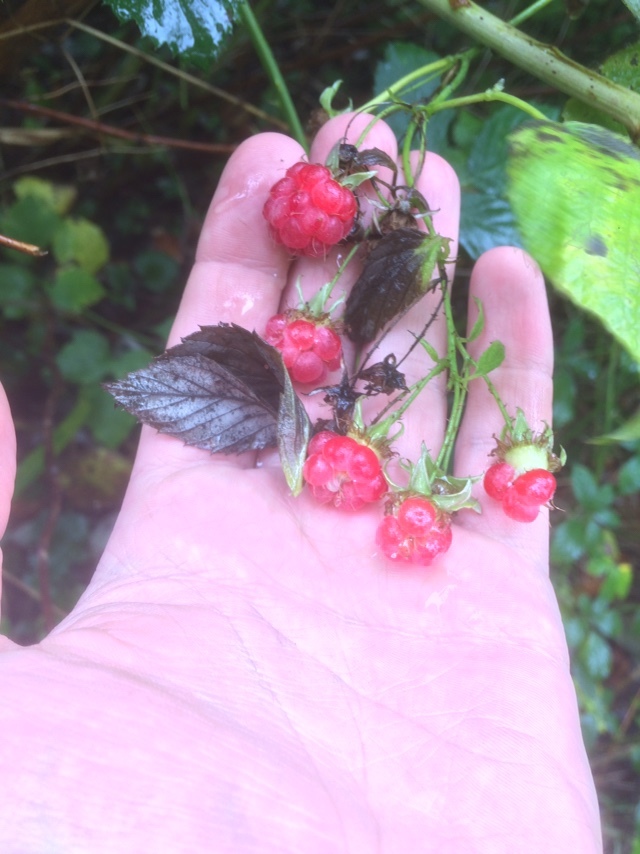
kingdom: Plantae
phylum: Tracheophyta
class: Magnoliopsida
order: Rosales
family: Rosaceae
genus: Rubus
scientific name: Rubus idaeus
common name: Raspberry
